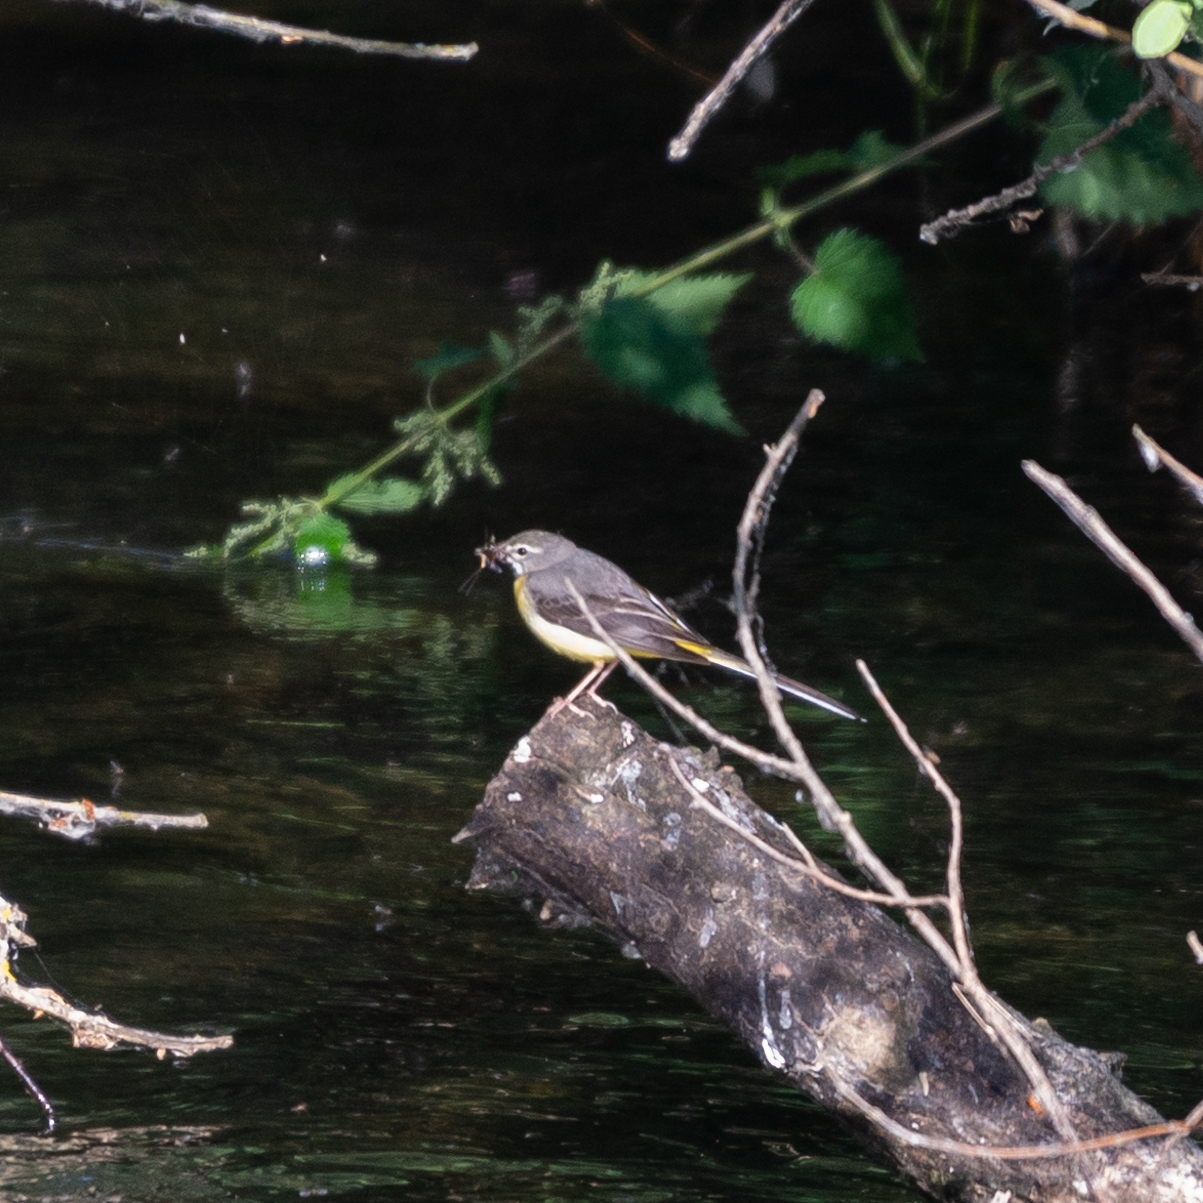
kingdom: Animalia
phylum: Chordata
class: Aves
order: Passeriformes
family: Motacillidae
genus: Motacilla
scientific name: Motacilla cinerea
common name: Grey wagtail
